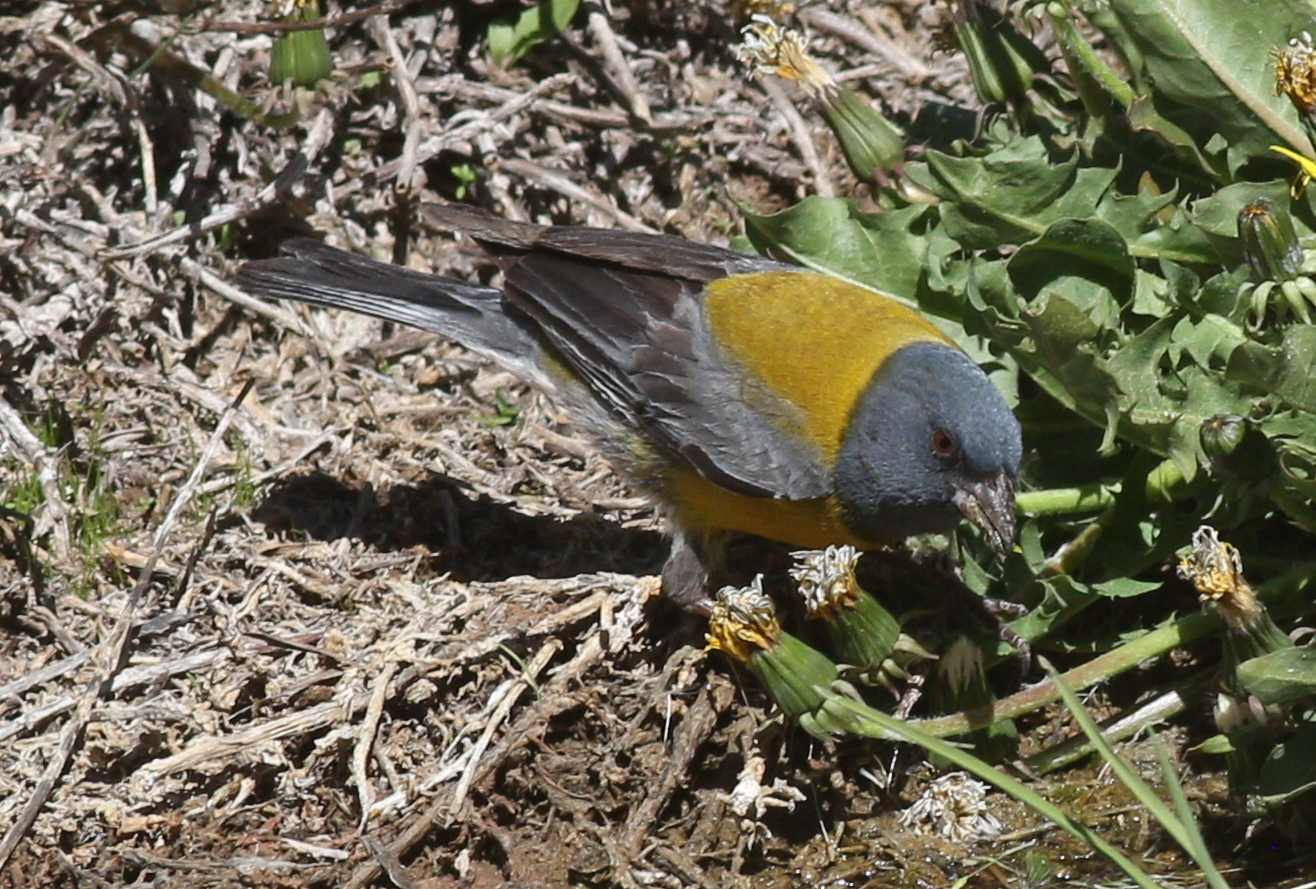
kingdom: Animalia
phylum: Chordata
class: Aves
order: Passeriformes
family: Thraupidae
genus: Phrygilus
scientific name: Phrygilus gayi
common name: Grey-hooded sierra finch
